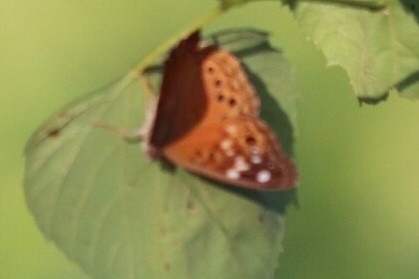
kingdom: Animalia
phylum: Arthropoda
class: Insecta
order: Lepidoptera
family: Nymphalidae
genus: Asterocampa
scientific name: Asterocampa celtis
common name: Hackberry emperor
